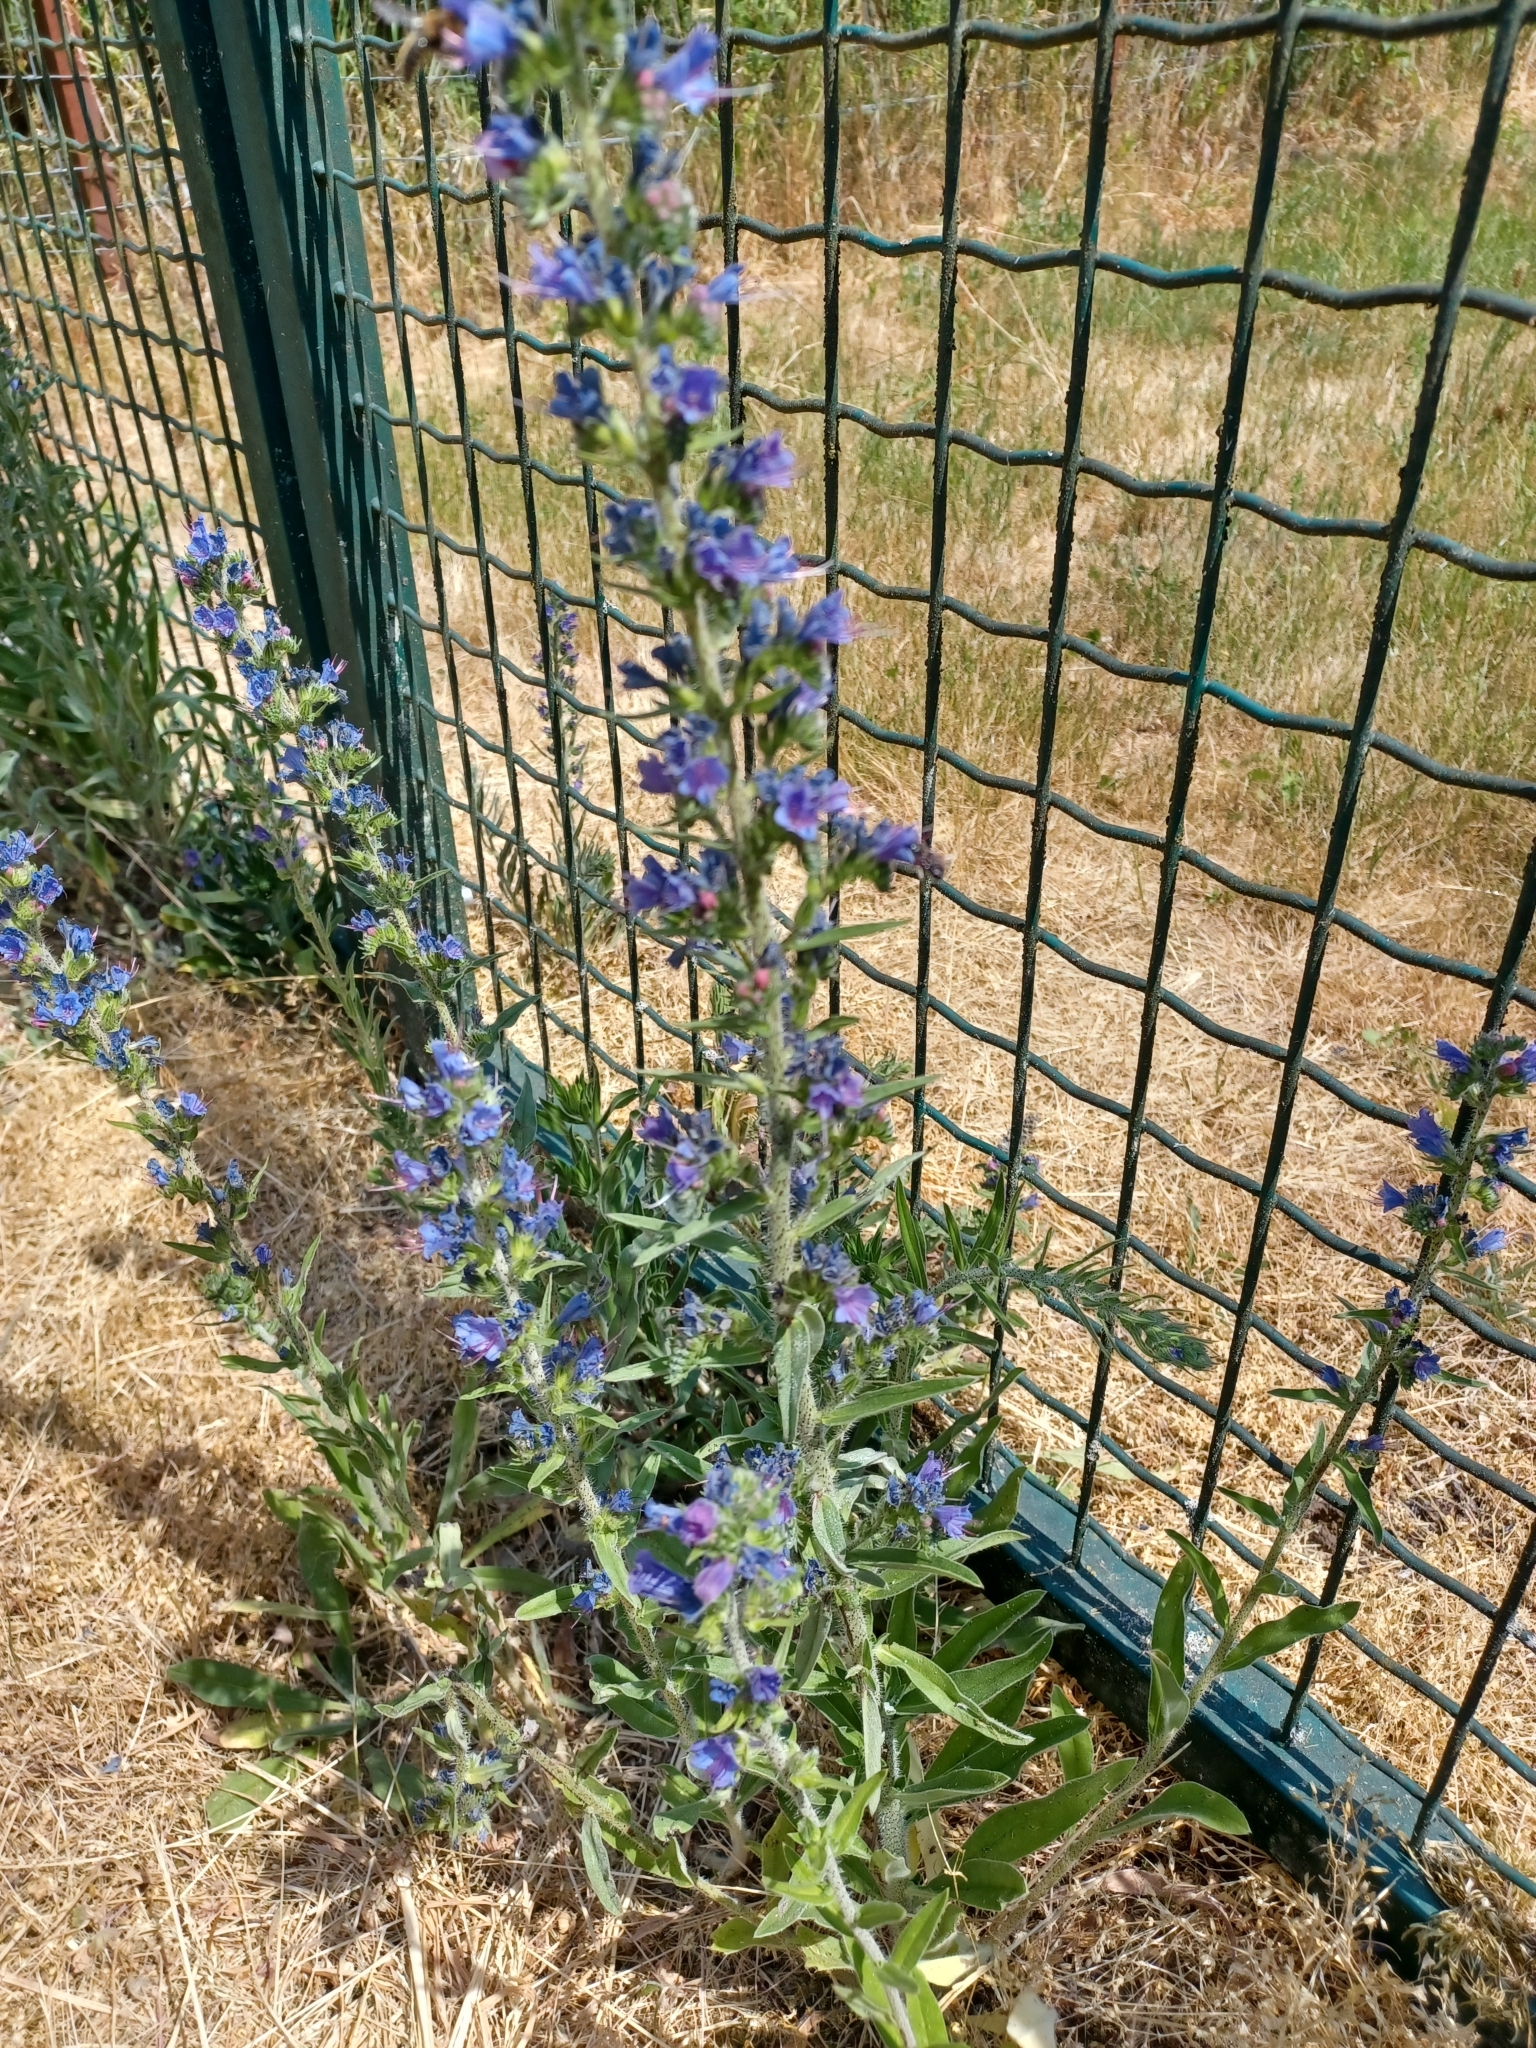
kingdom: Plantae
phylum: Tracheophyta
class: Magnoliopsida
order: Boraginales
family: Boraginaceae
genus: Echium
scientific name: Echium vulgare
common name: Common viper's bugloss
